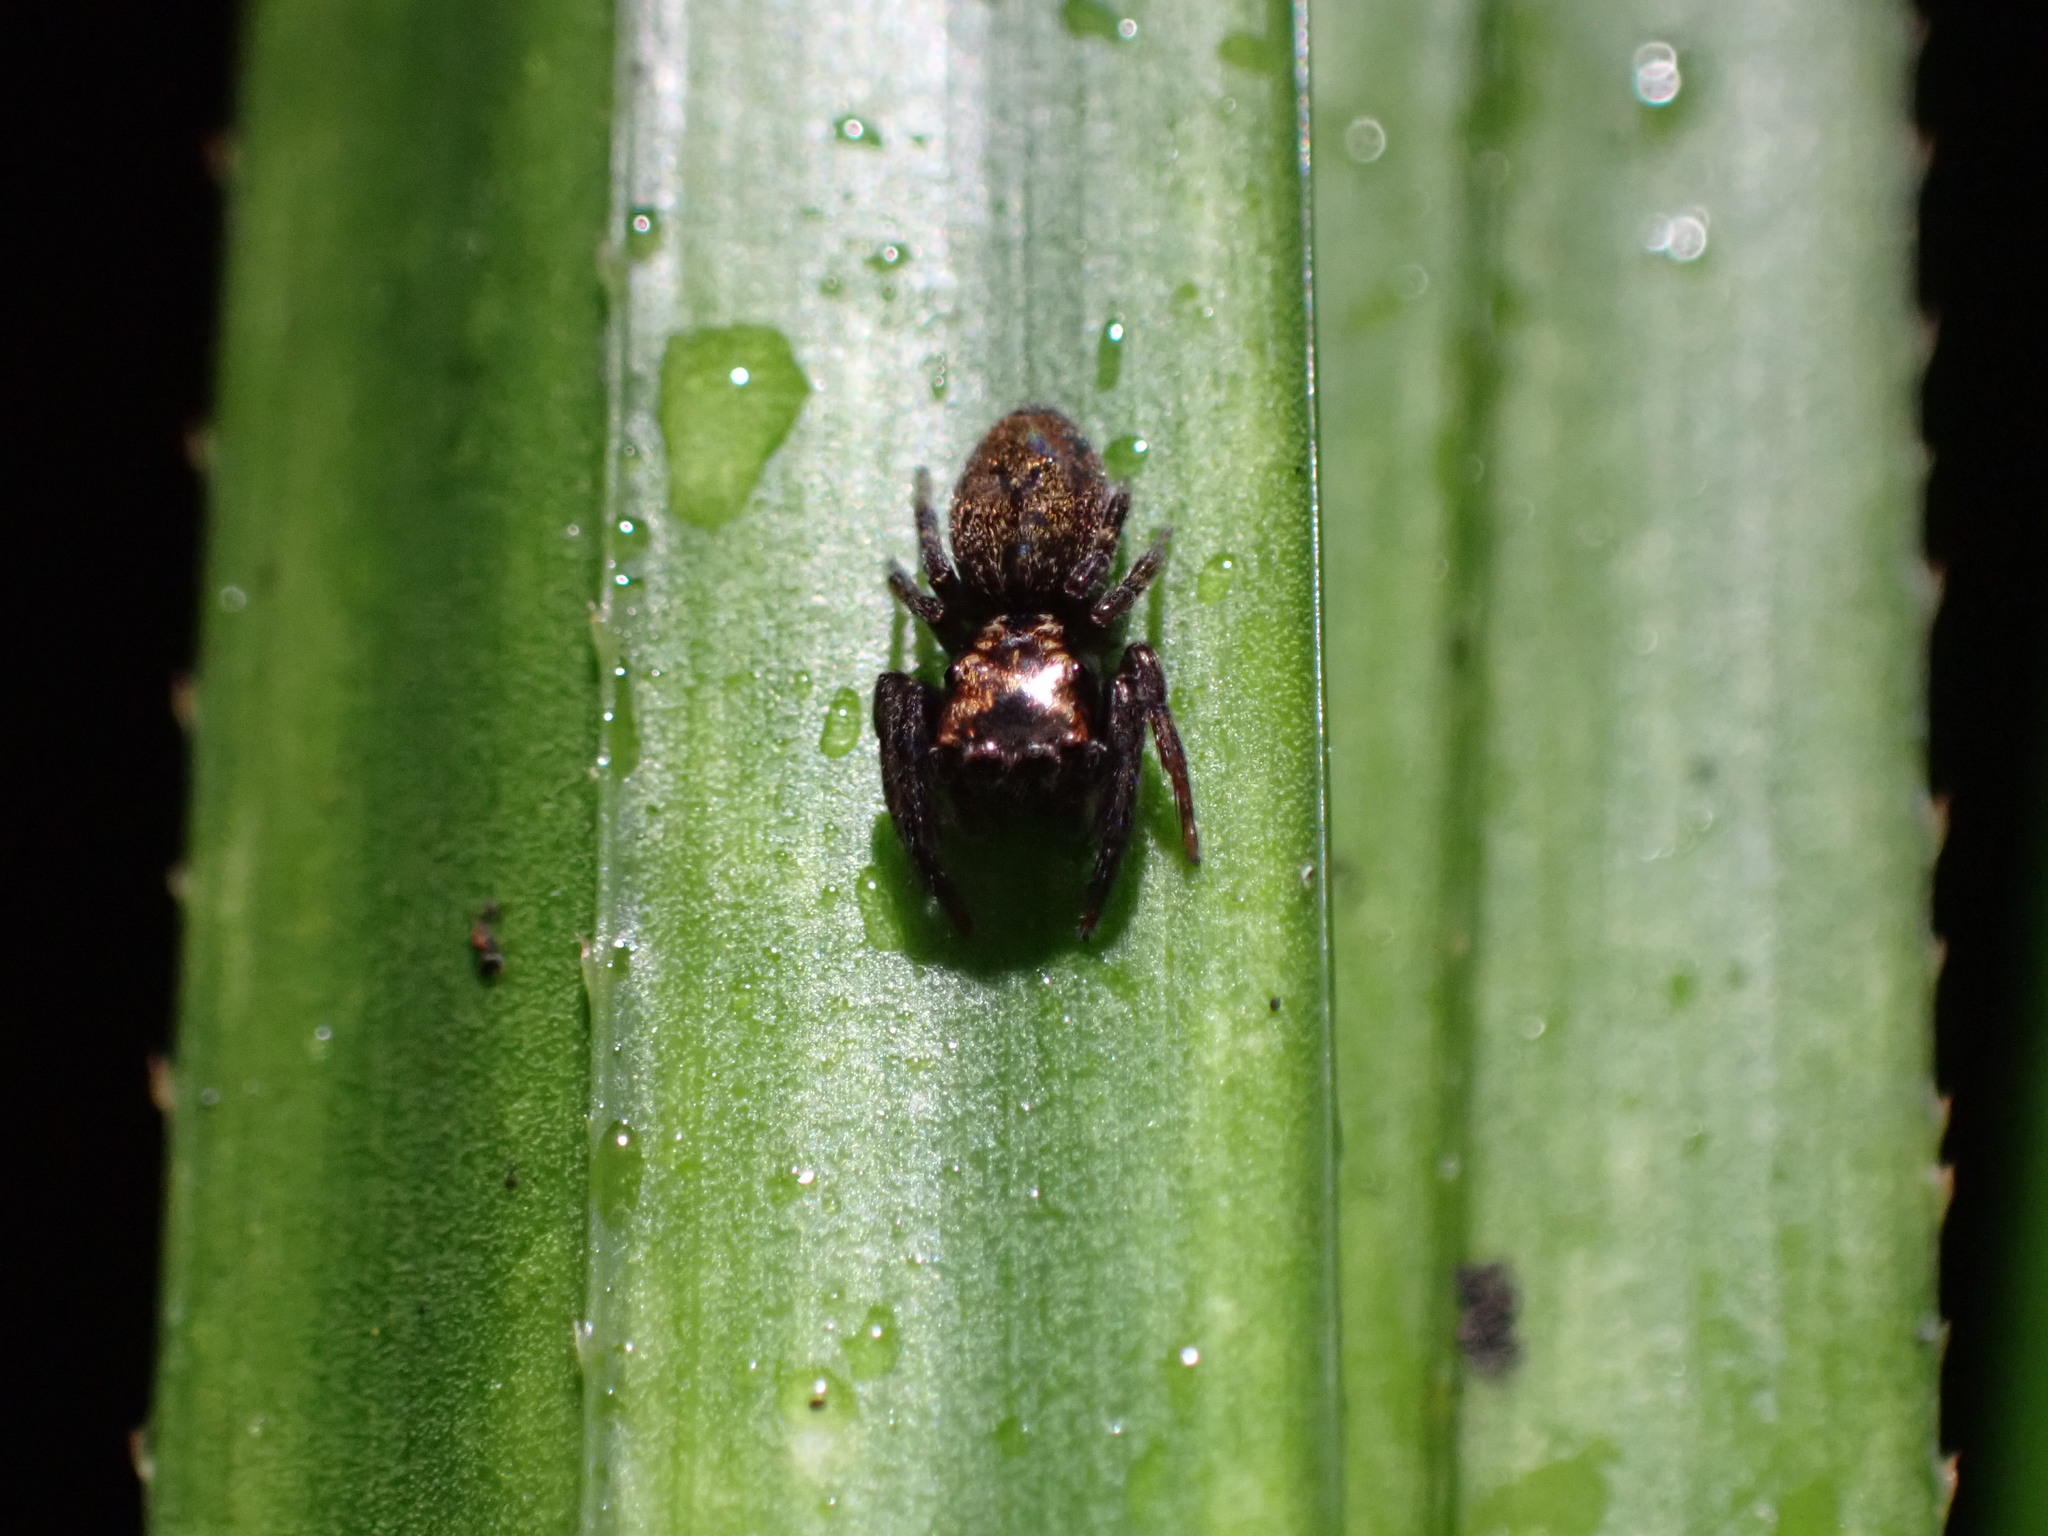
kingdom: Animalia
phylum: Arthropoda
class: Arachnida
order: Araneae
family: Salticidae
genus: Trite
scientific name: Trite auricoma
